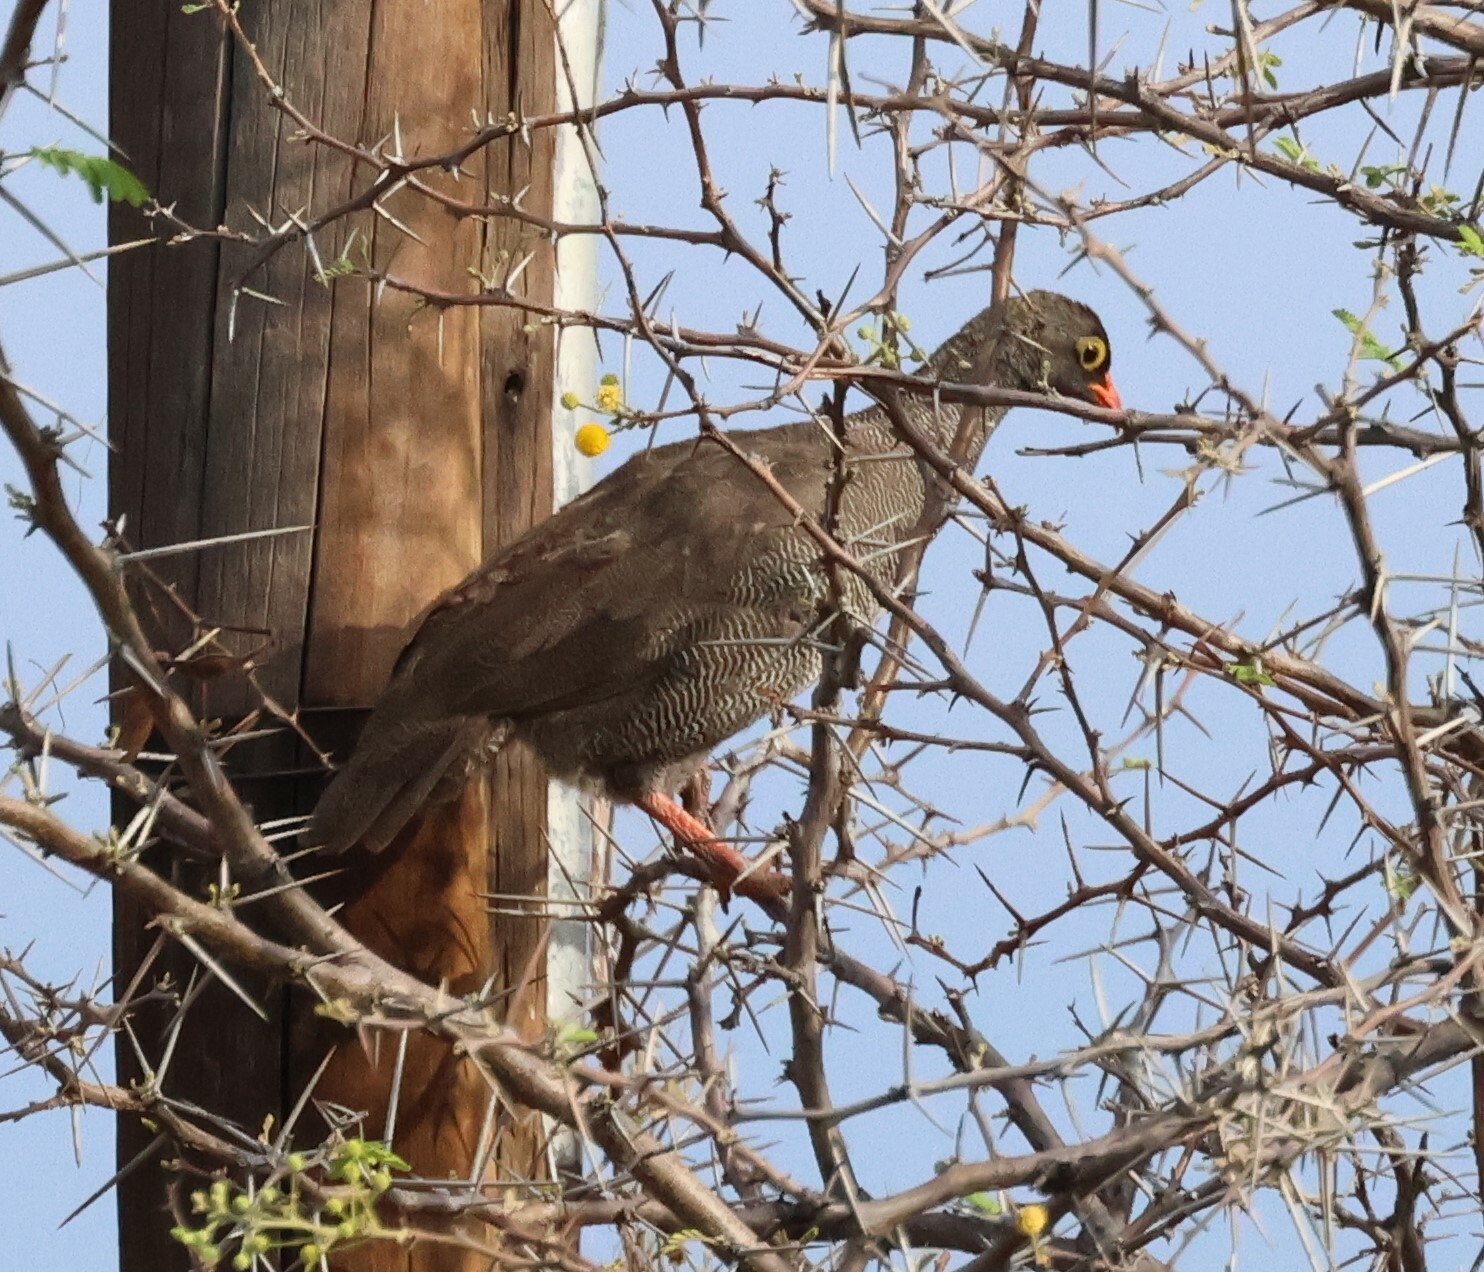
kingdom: Animalia
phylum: Chordata
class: Aves
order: Galliformes
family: Phasianidae
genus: Pternistis
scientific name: Pternistis adspersus
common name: Red-billed spurfowl
